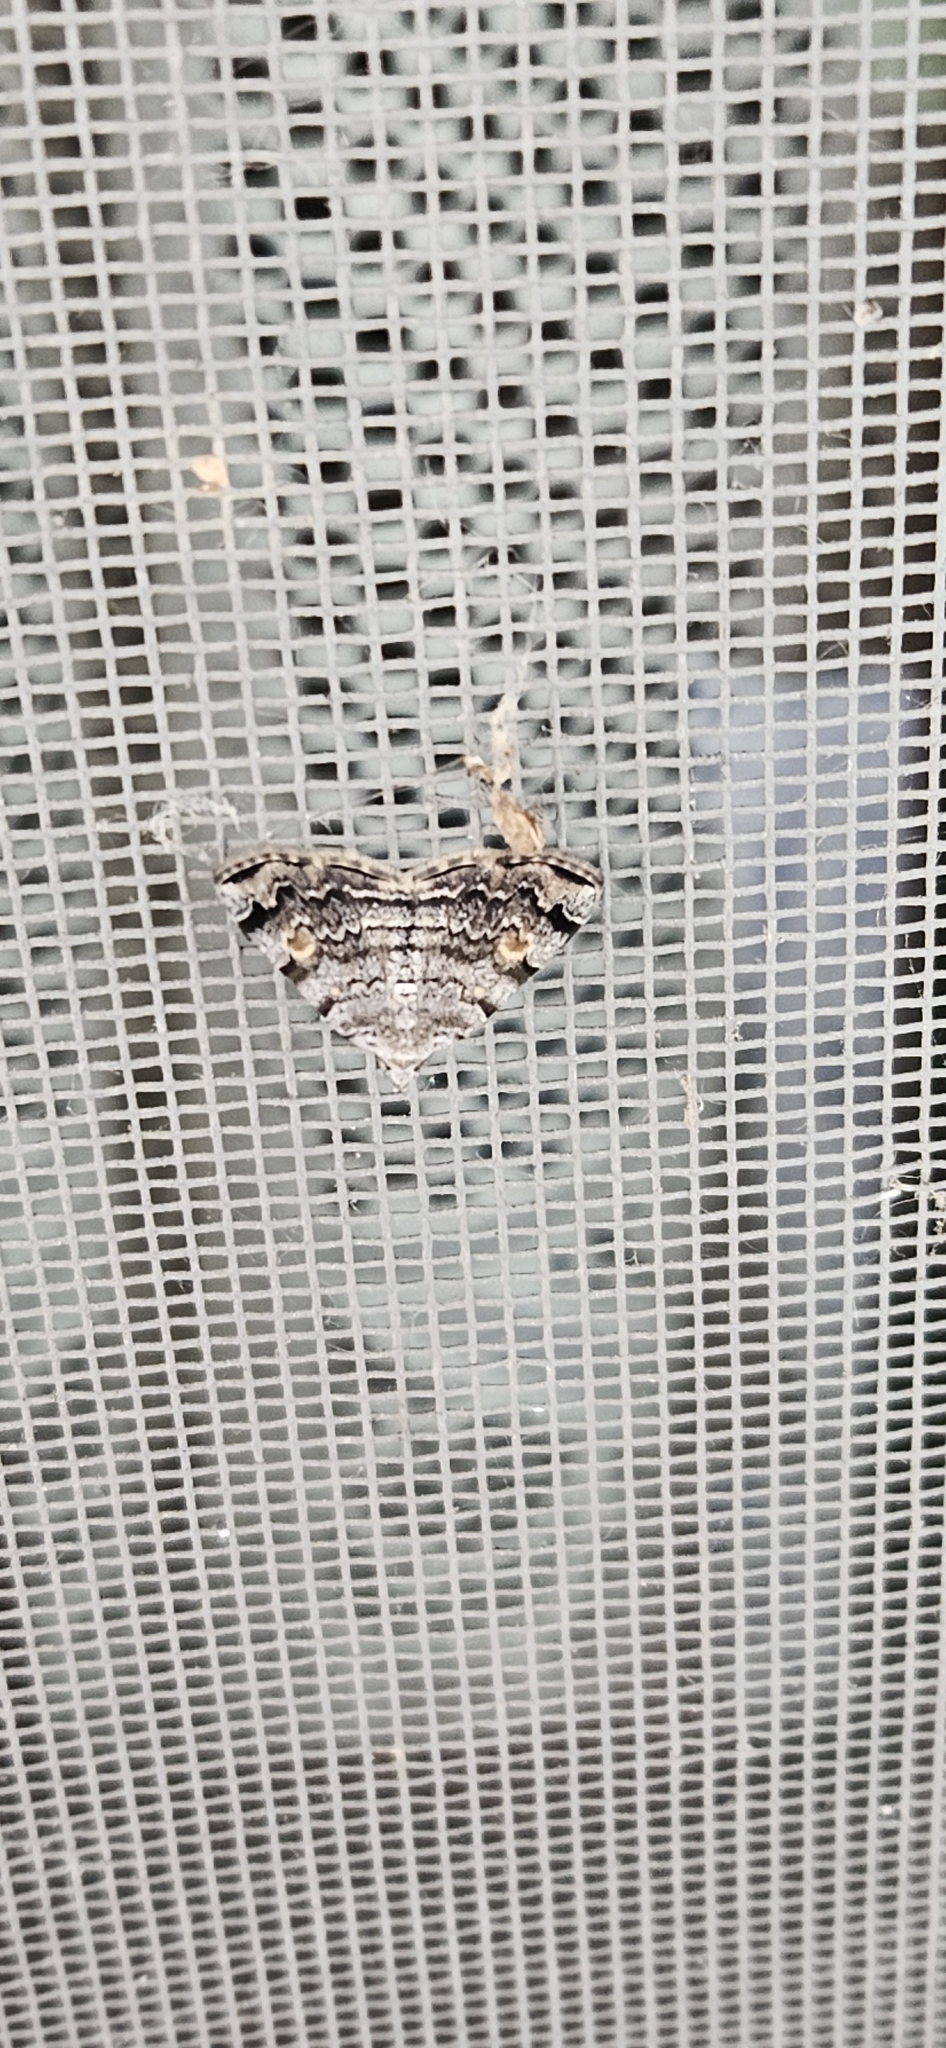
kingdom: Animalia
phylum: Arthropoda
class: Insecta
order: Lepidoptera
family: Erebidae
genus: Idia
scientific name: Idia americalis
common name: American idia moth
